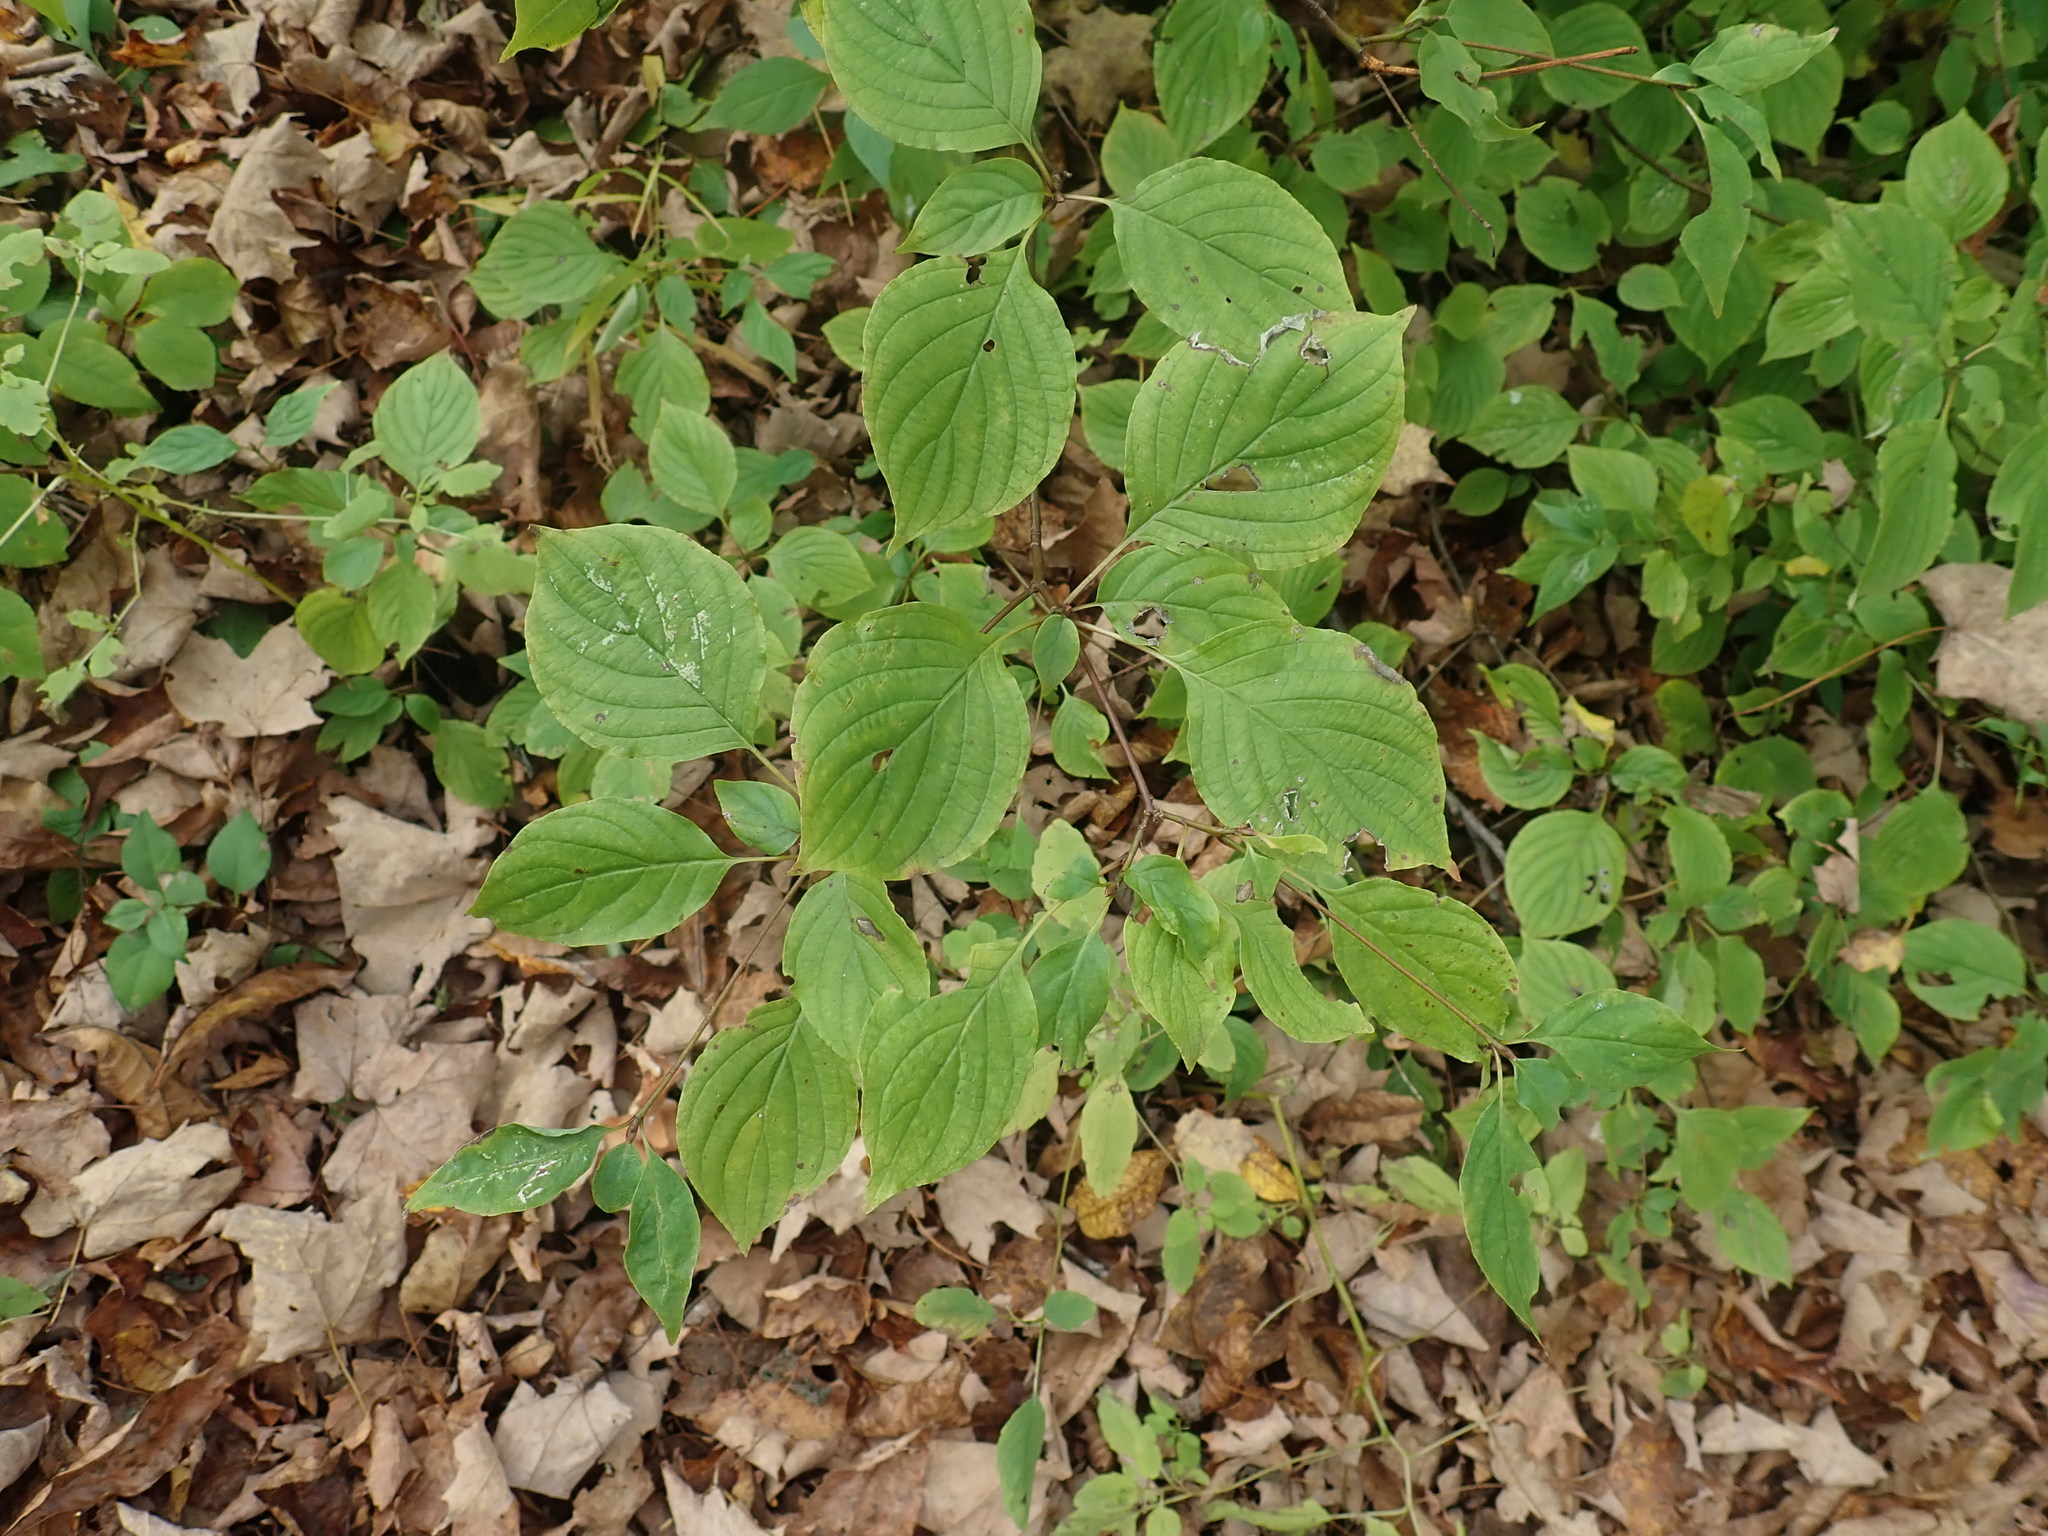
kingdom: Plantae
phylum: Tracheophyta
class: Magnoliopsida
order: Cornales
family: Cornaceae
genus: Cornus
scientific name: Cornus alternifolia
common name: Pagoda dogwood
